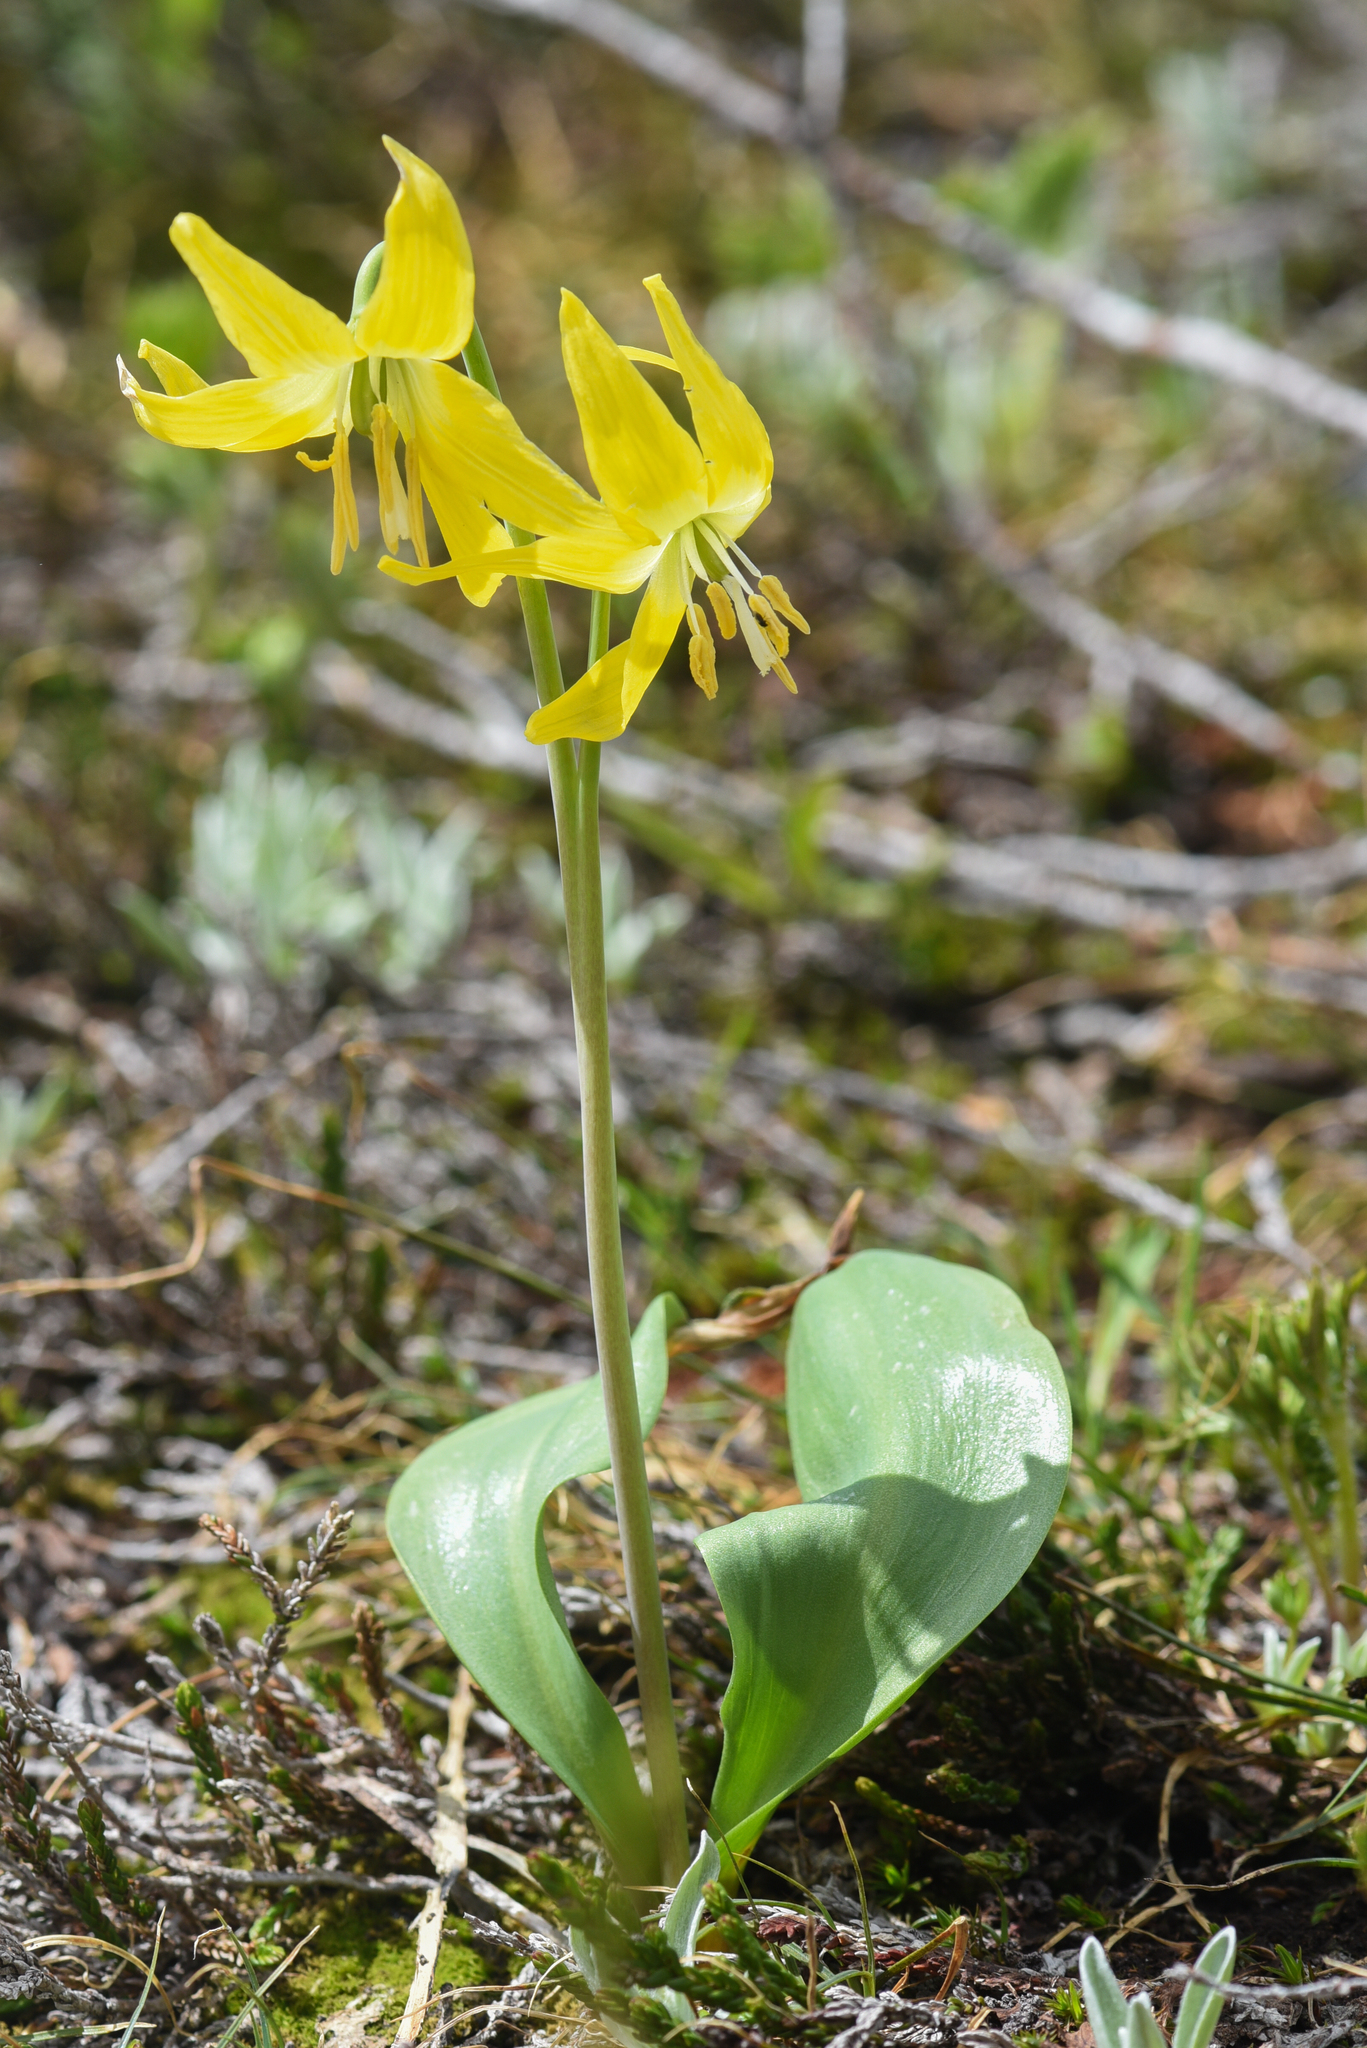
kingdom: Plantae
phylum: Tracheophyta
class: Liliopsida
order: Liliales
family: Liliaceae
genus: Erythronium
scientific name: Erythronium grandiflorum
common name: Avalanche-lily
